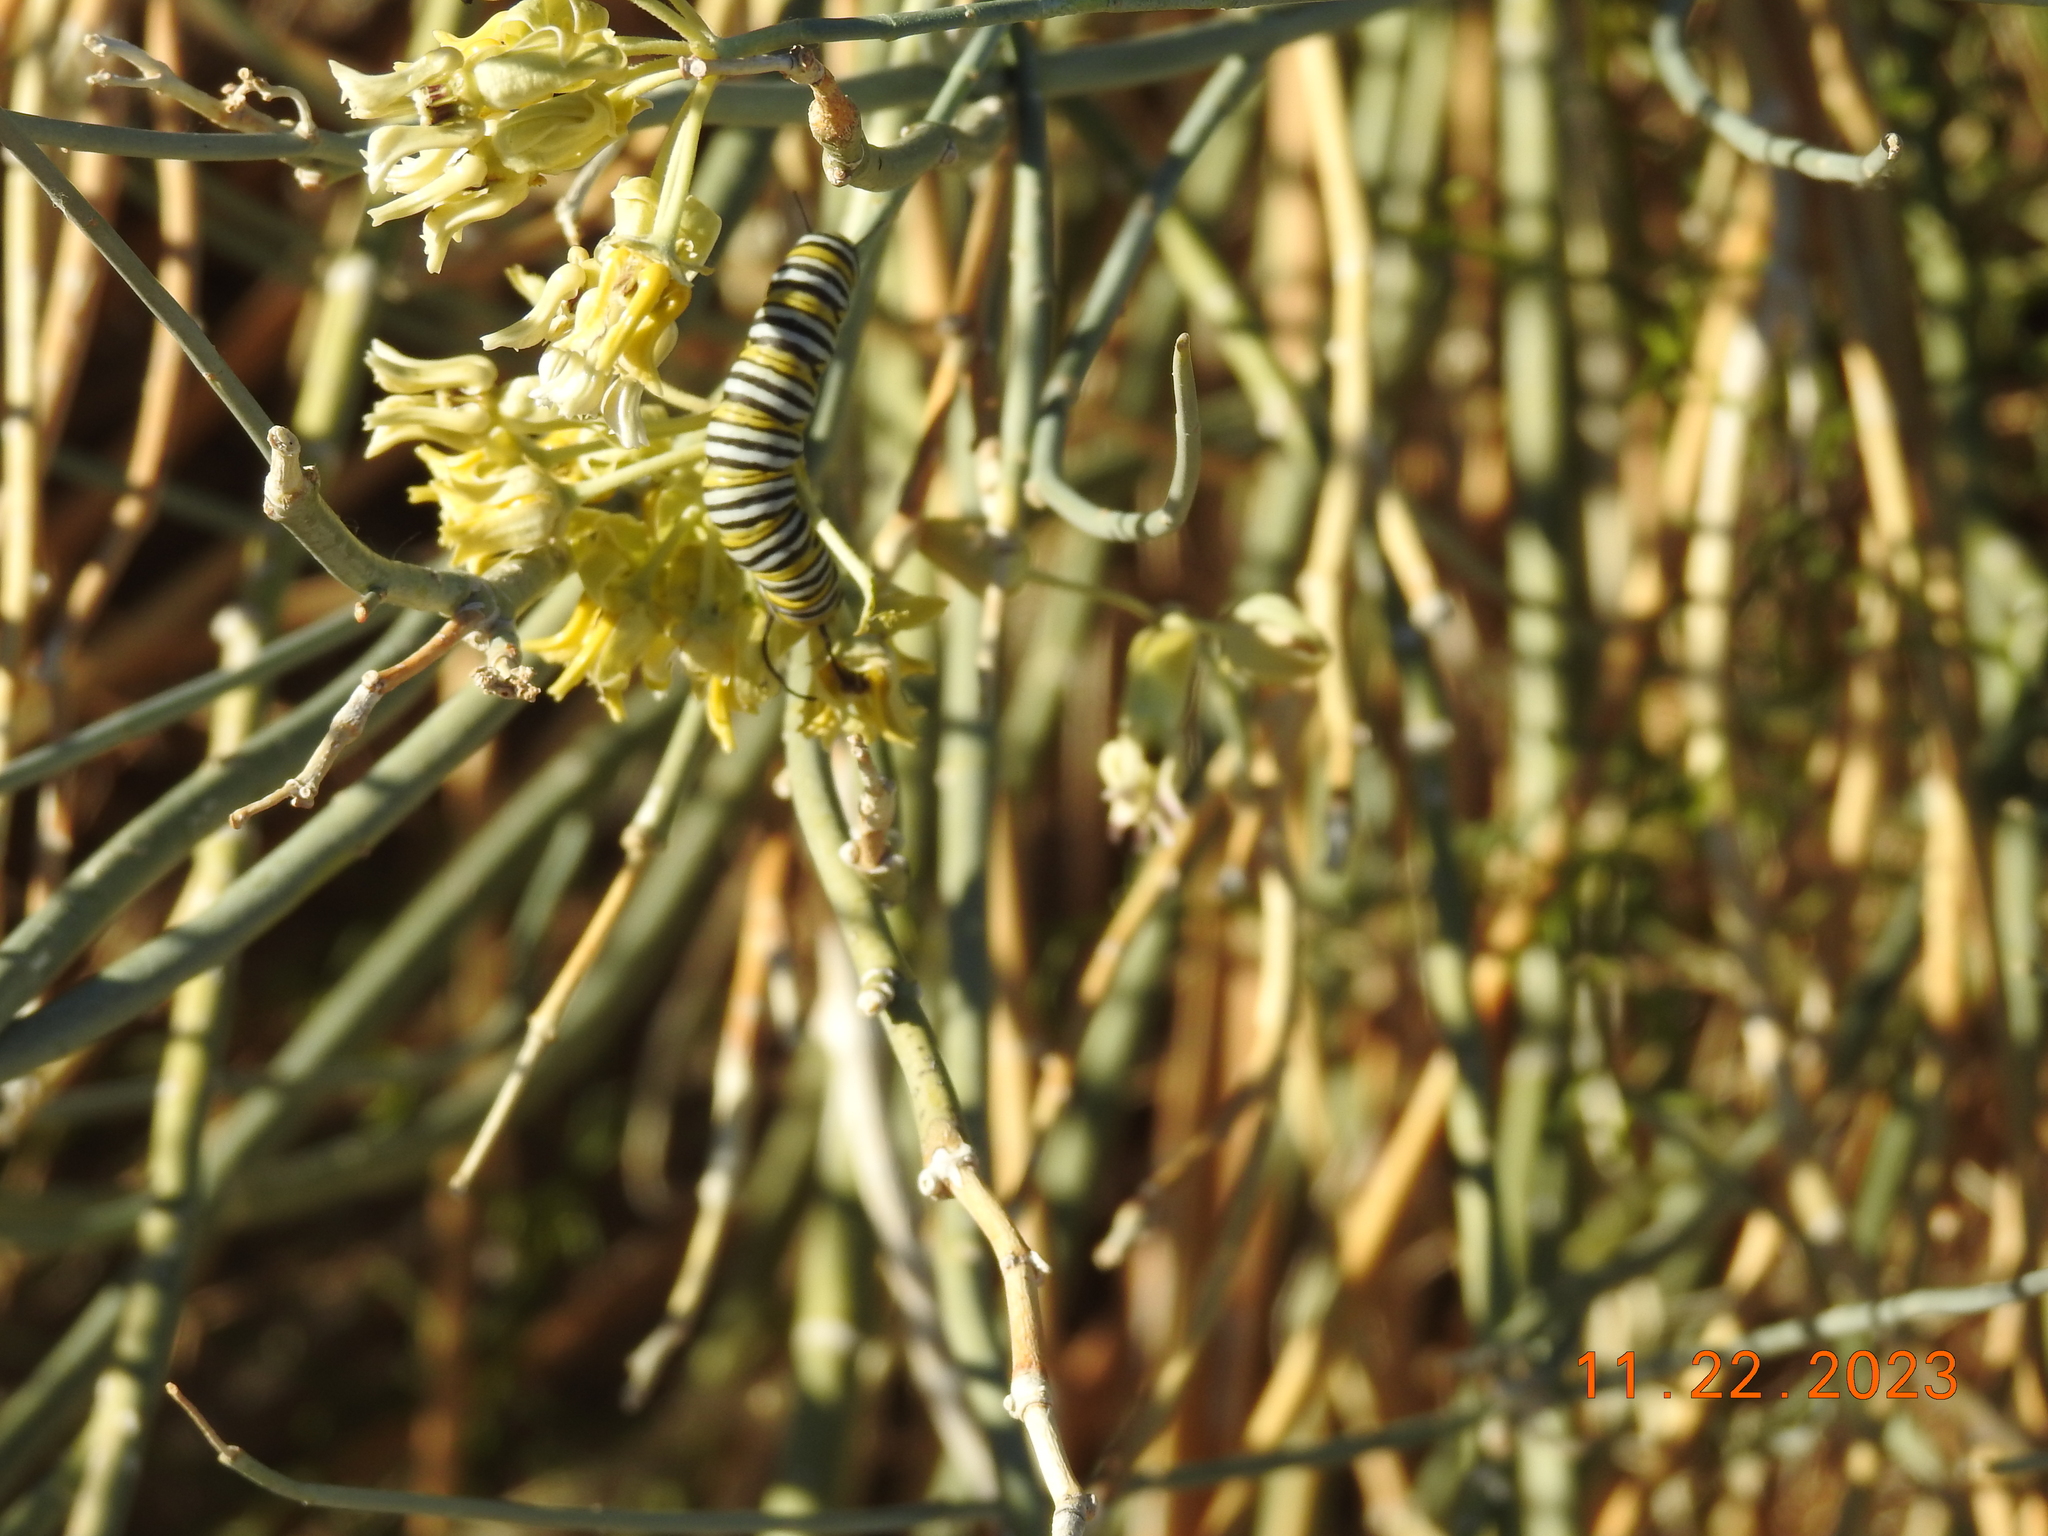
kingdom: Animalia
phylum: Arthropoda
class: Insecta
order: Lepidoptera
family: Nymphalidae
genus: Danaus
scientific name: Danaus plexippus
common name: Monarch
